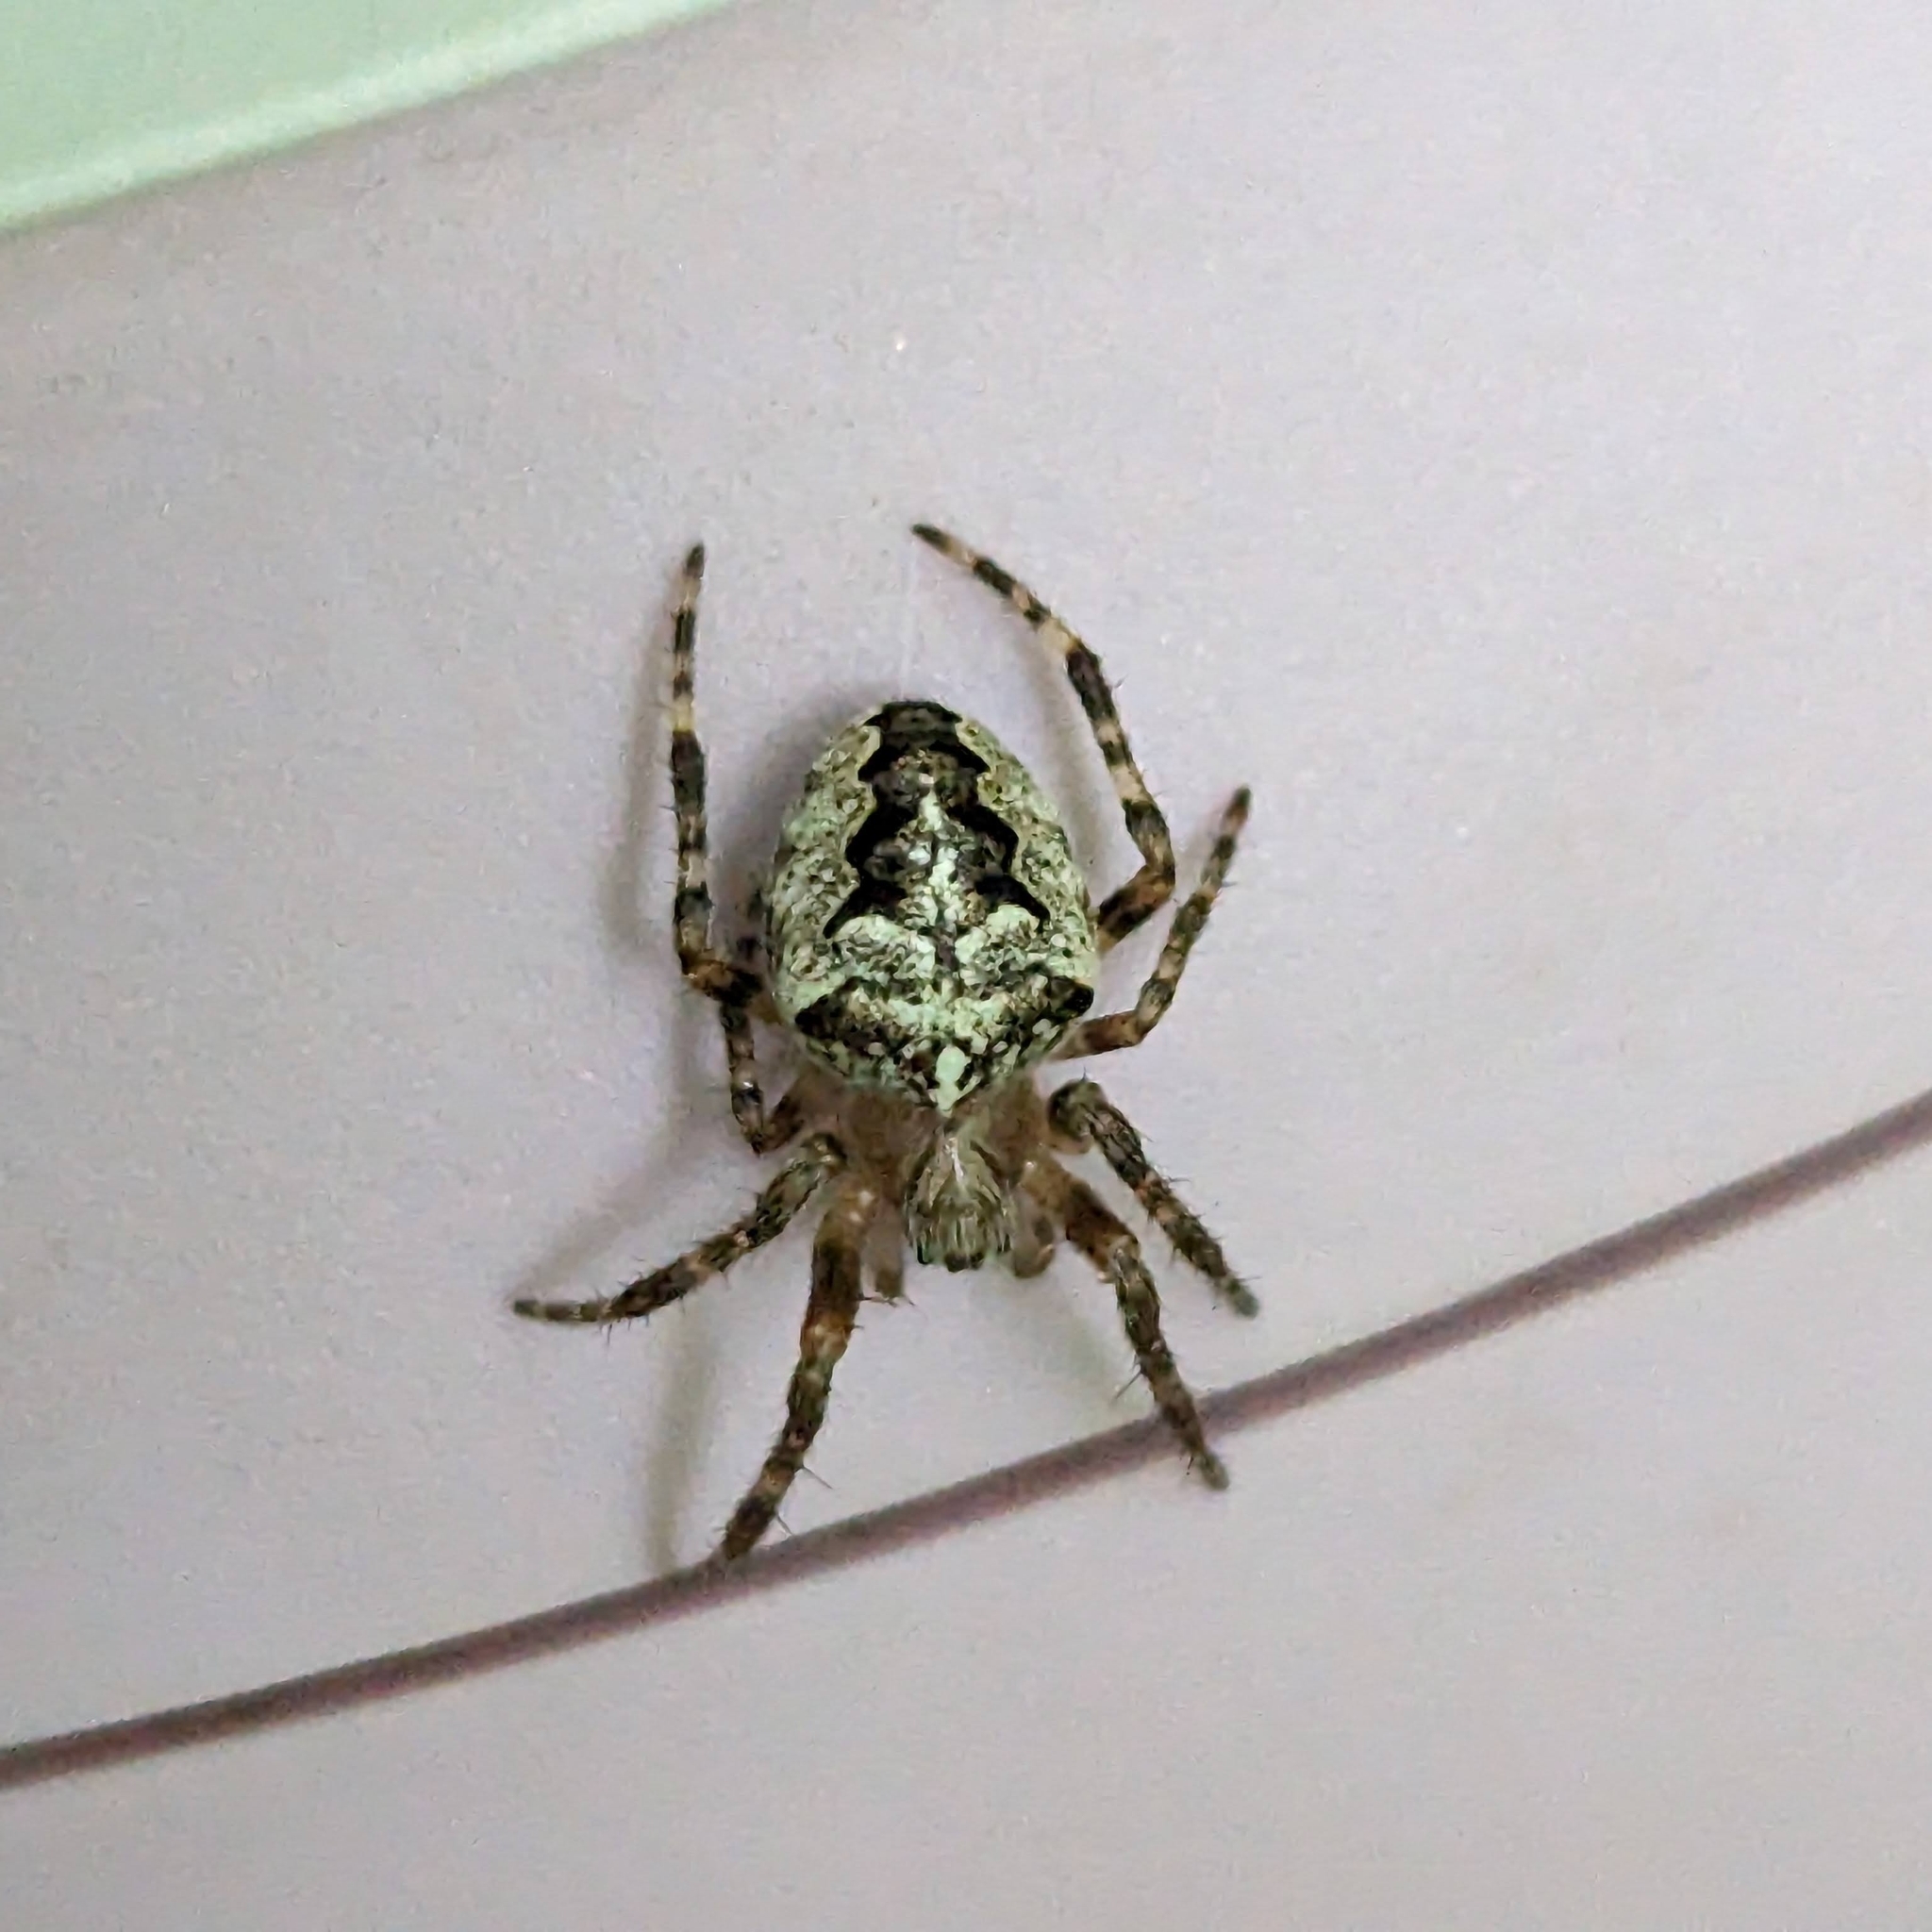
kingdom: Animalia
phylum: Arthropoda
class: Arachnida
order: Araneae
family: Araneidae
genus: Araneus
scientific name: Araneus nordmanni
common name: Nordmann's orbweaver
